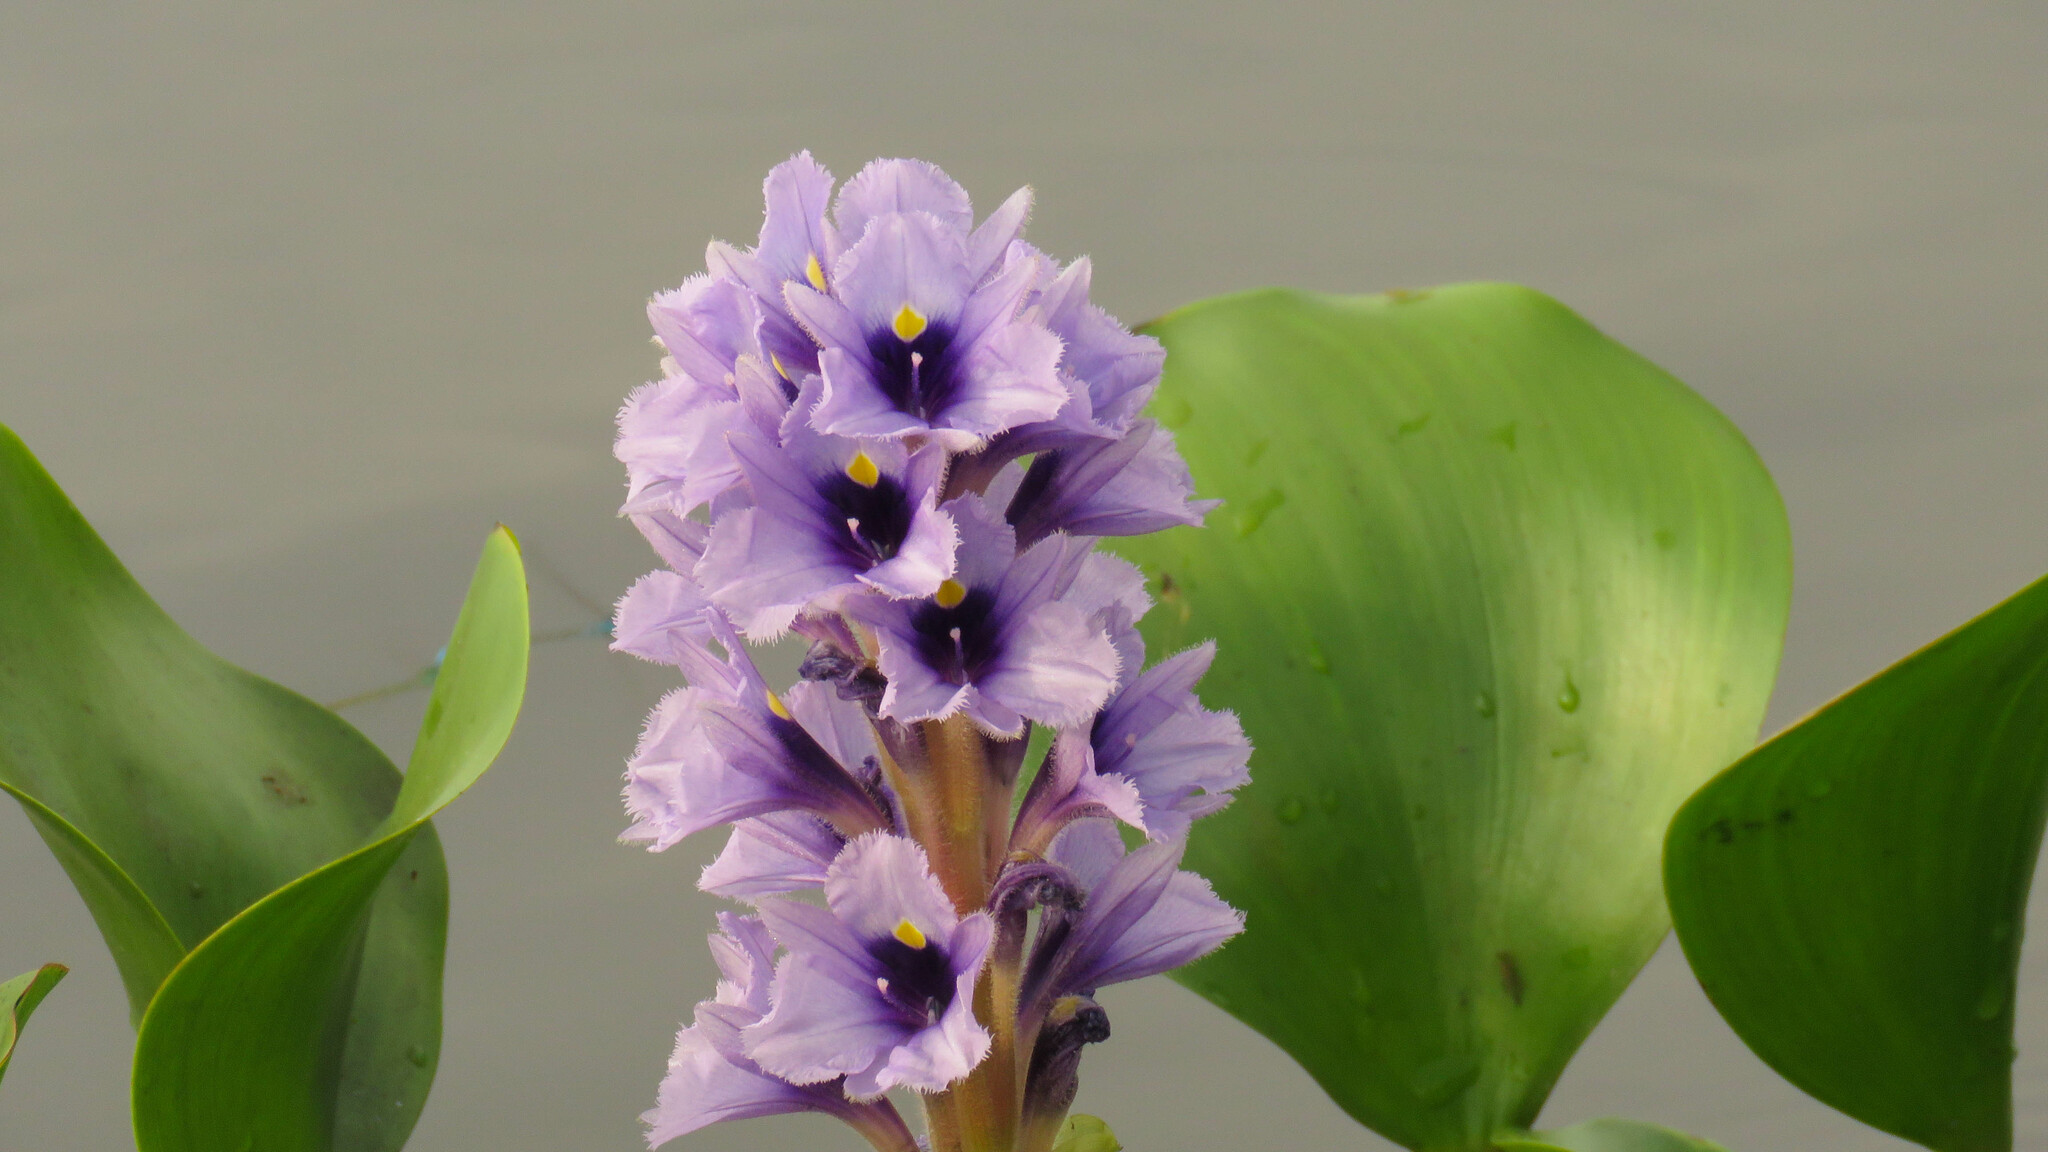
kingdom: Plantae
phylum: Tracheophyta
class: Liliopsida
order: Commelinales
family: Pontederiaceae
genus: Pontederia
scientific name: Pontederia azurea
